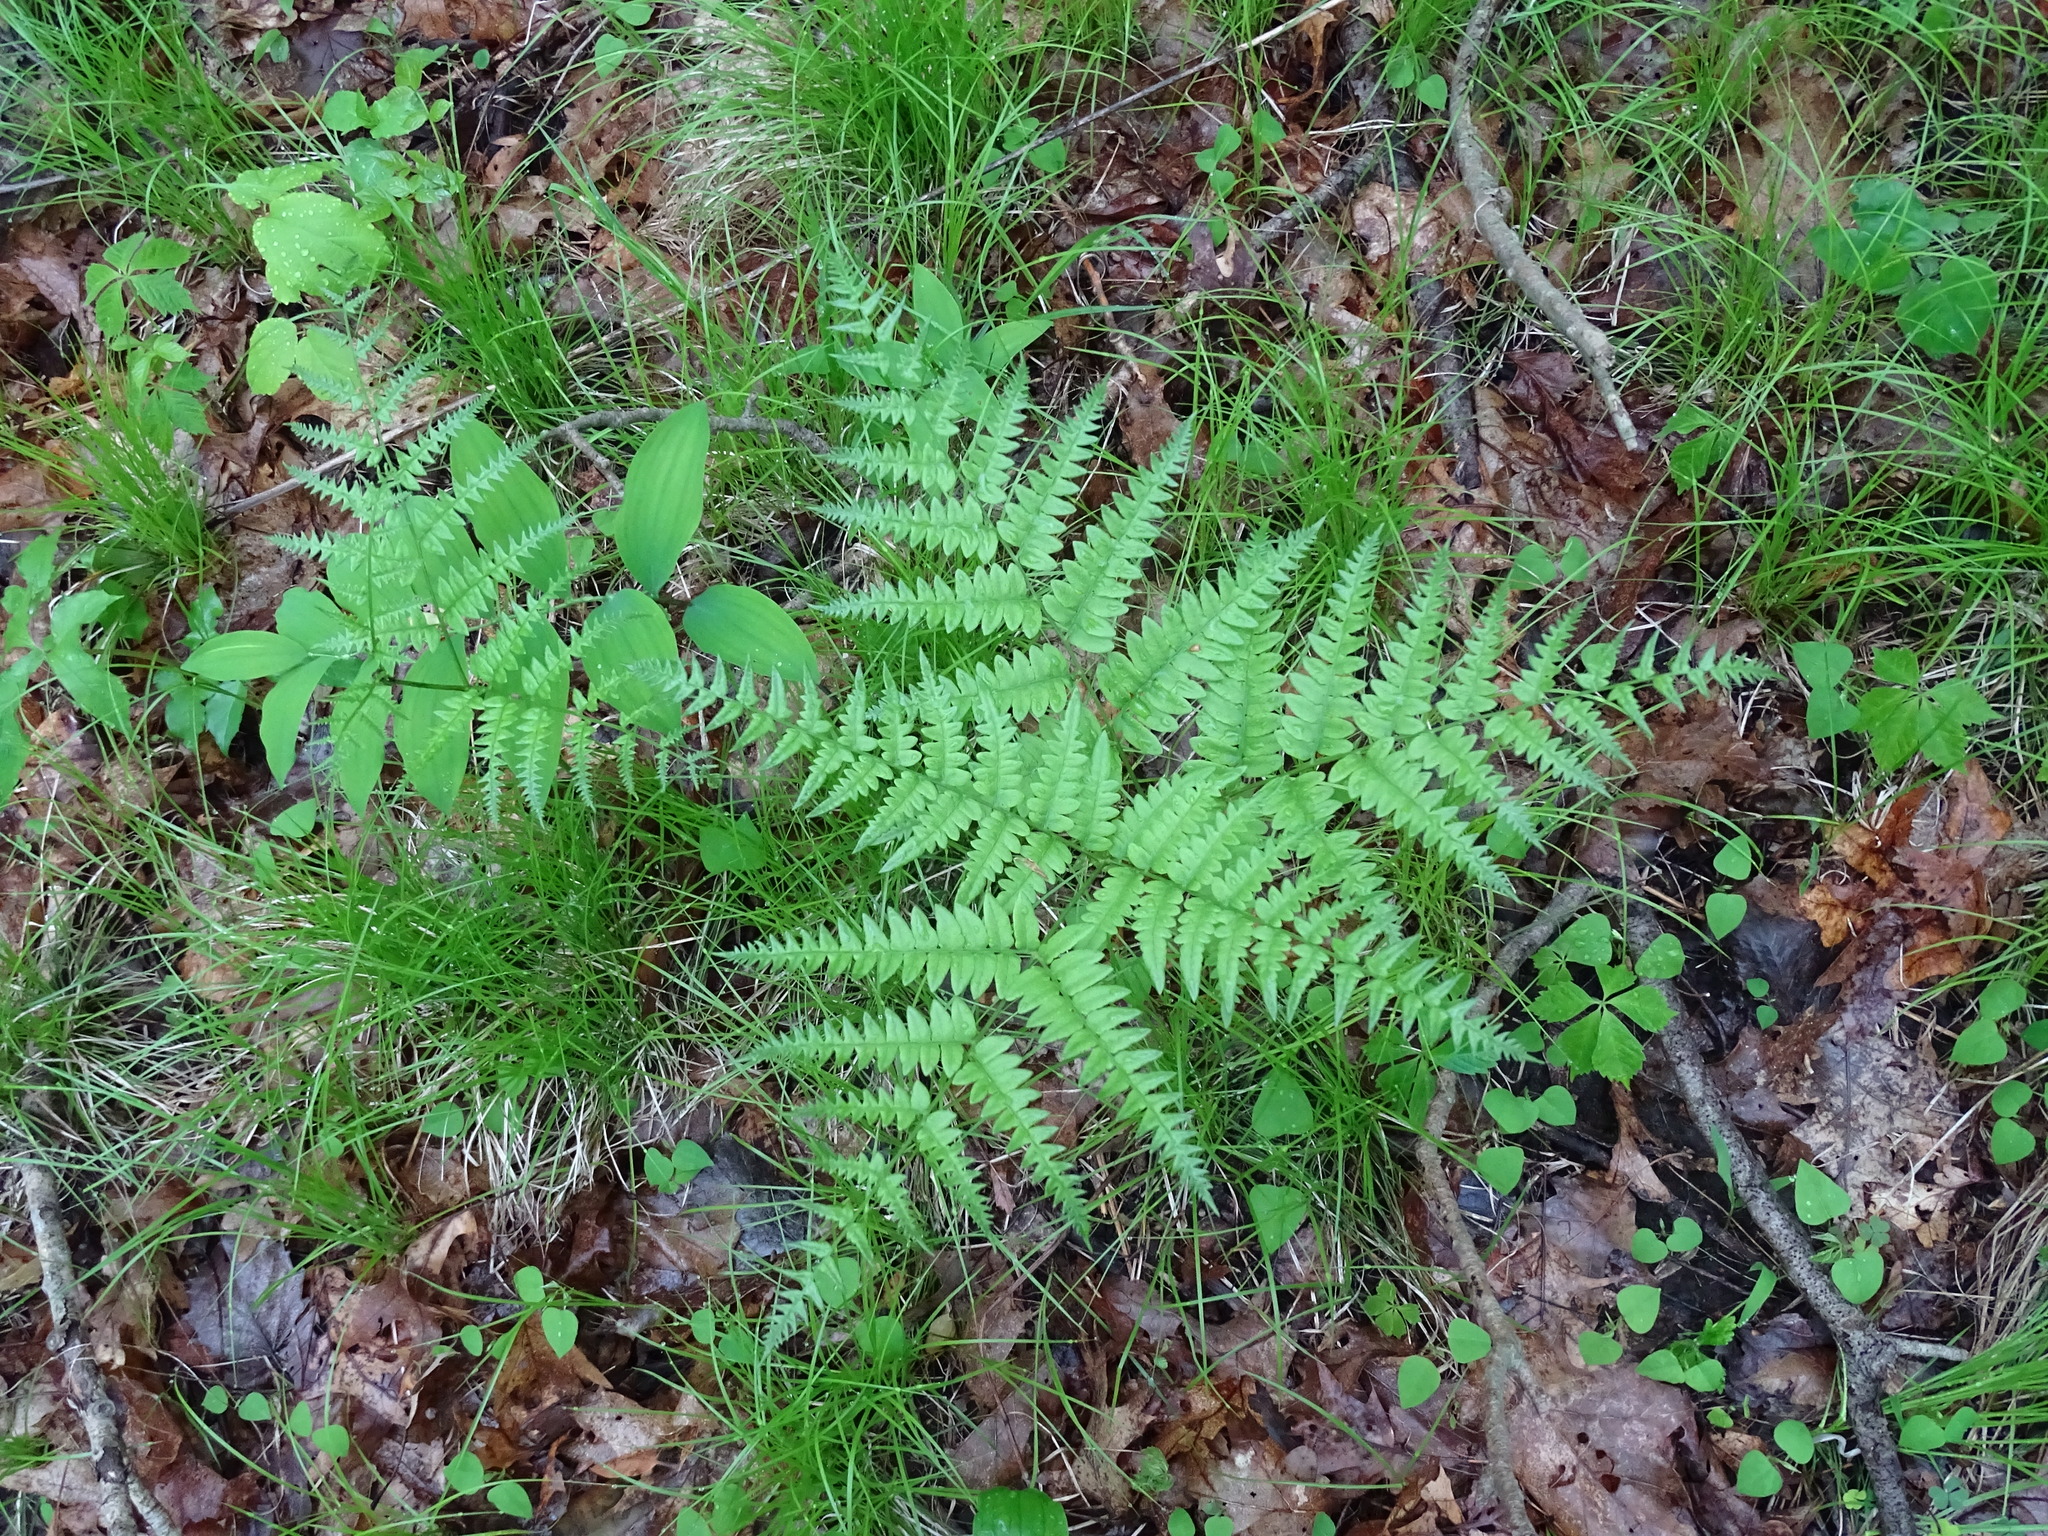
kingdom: Plantae
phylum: Tracheophyta
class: Polypodiopsida
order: Polypodiales
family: Dennstaedtiaceae
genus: Pteridium
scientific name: Pteridium aquilinum
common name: Bracken
